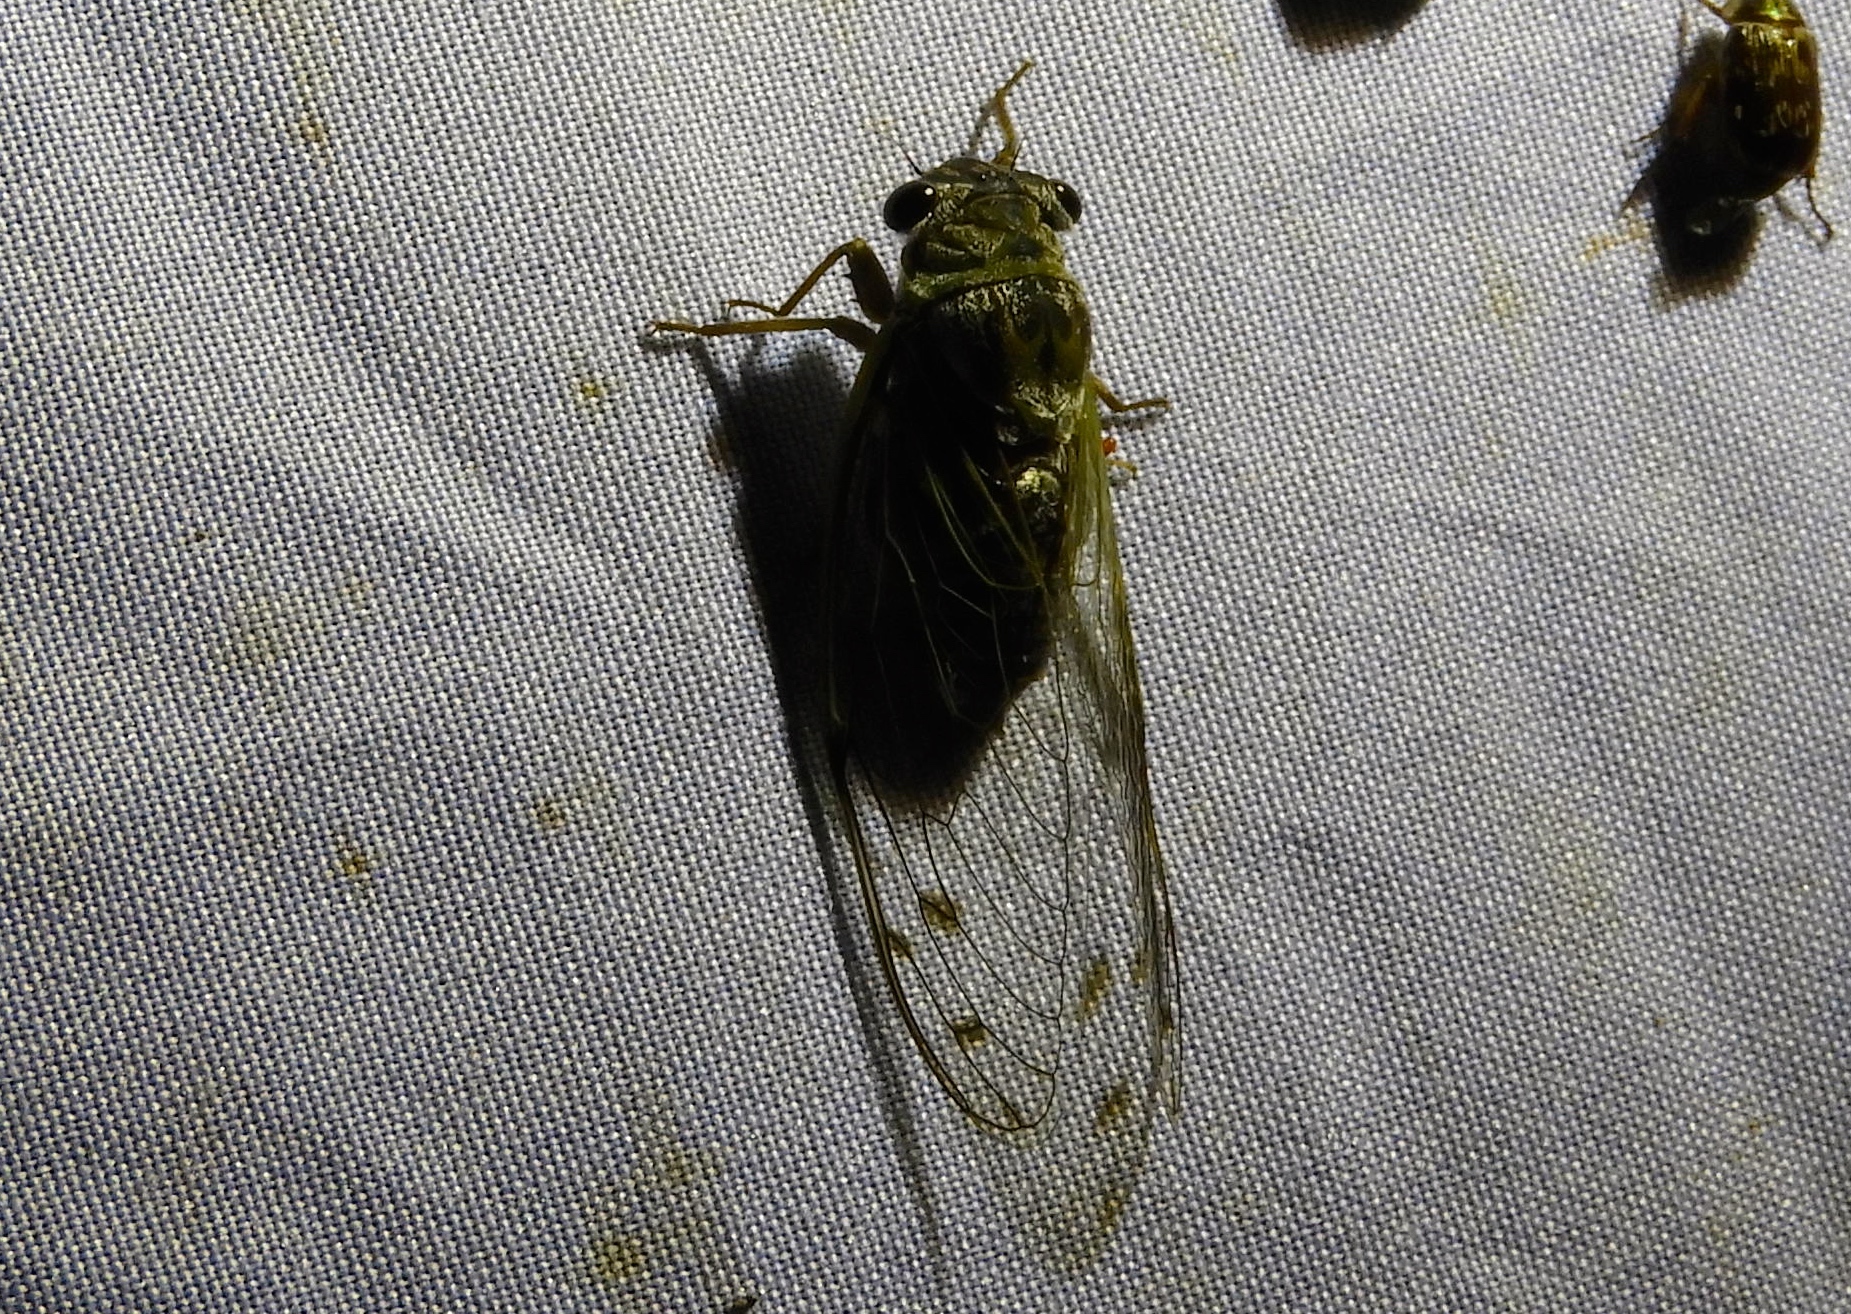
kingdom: Animalia
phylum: Arthropoda
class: Insecta
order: Hemiptera
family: Cicadidae
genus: Diceroprocta
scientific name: Diceroprocta tepicana
